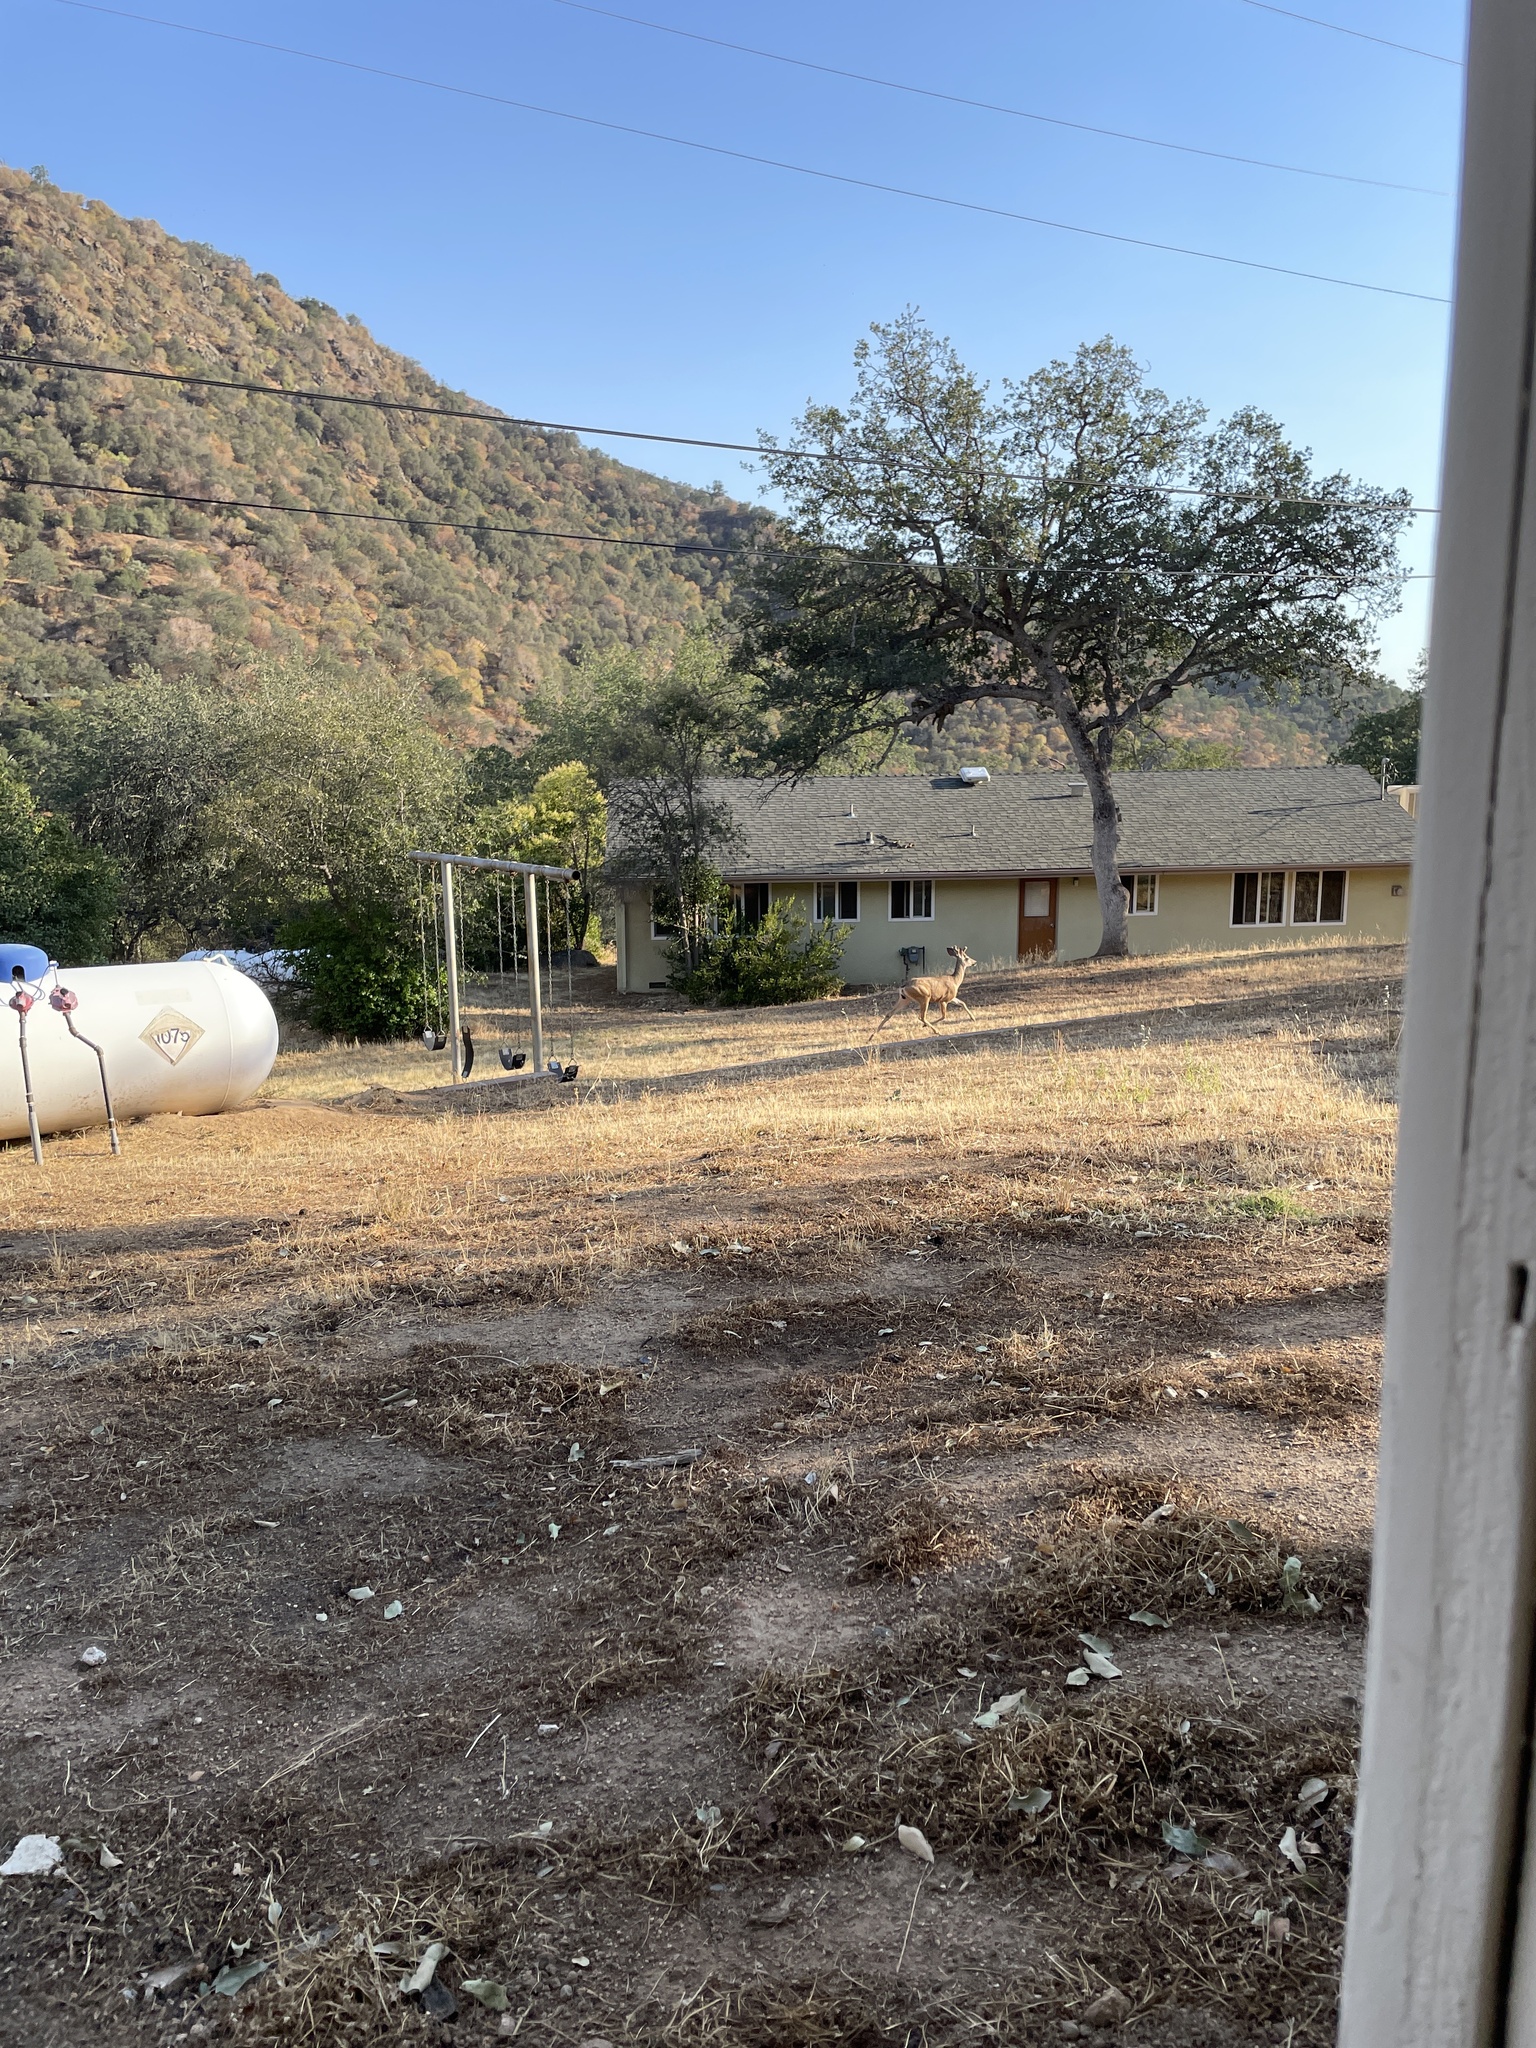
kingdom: Animalia
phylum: Chordata
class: Mammalia
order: Artiodactyla
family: Cervidae
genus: Odocoileus
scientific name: Odocoileus hemionus
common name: Mule deer
